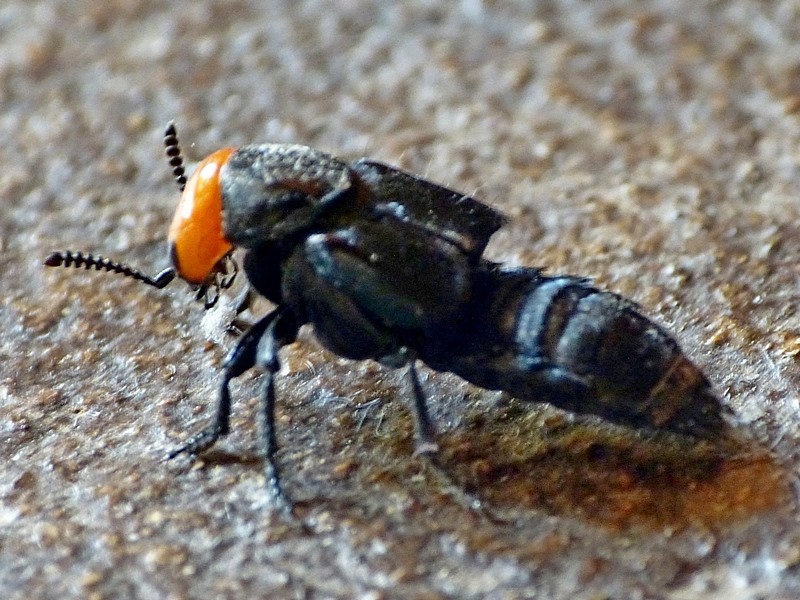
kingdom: Animalia
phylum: Arthropoda
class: Insecta
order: Coleoptera
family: Staphylinidae
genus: Creophilus
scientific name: Creophilus erythrocephalus
